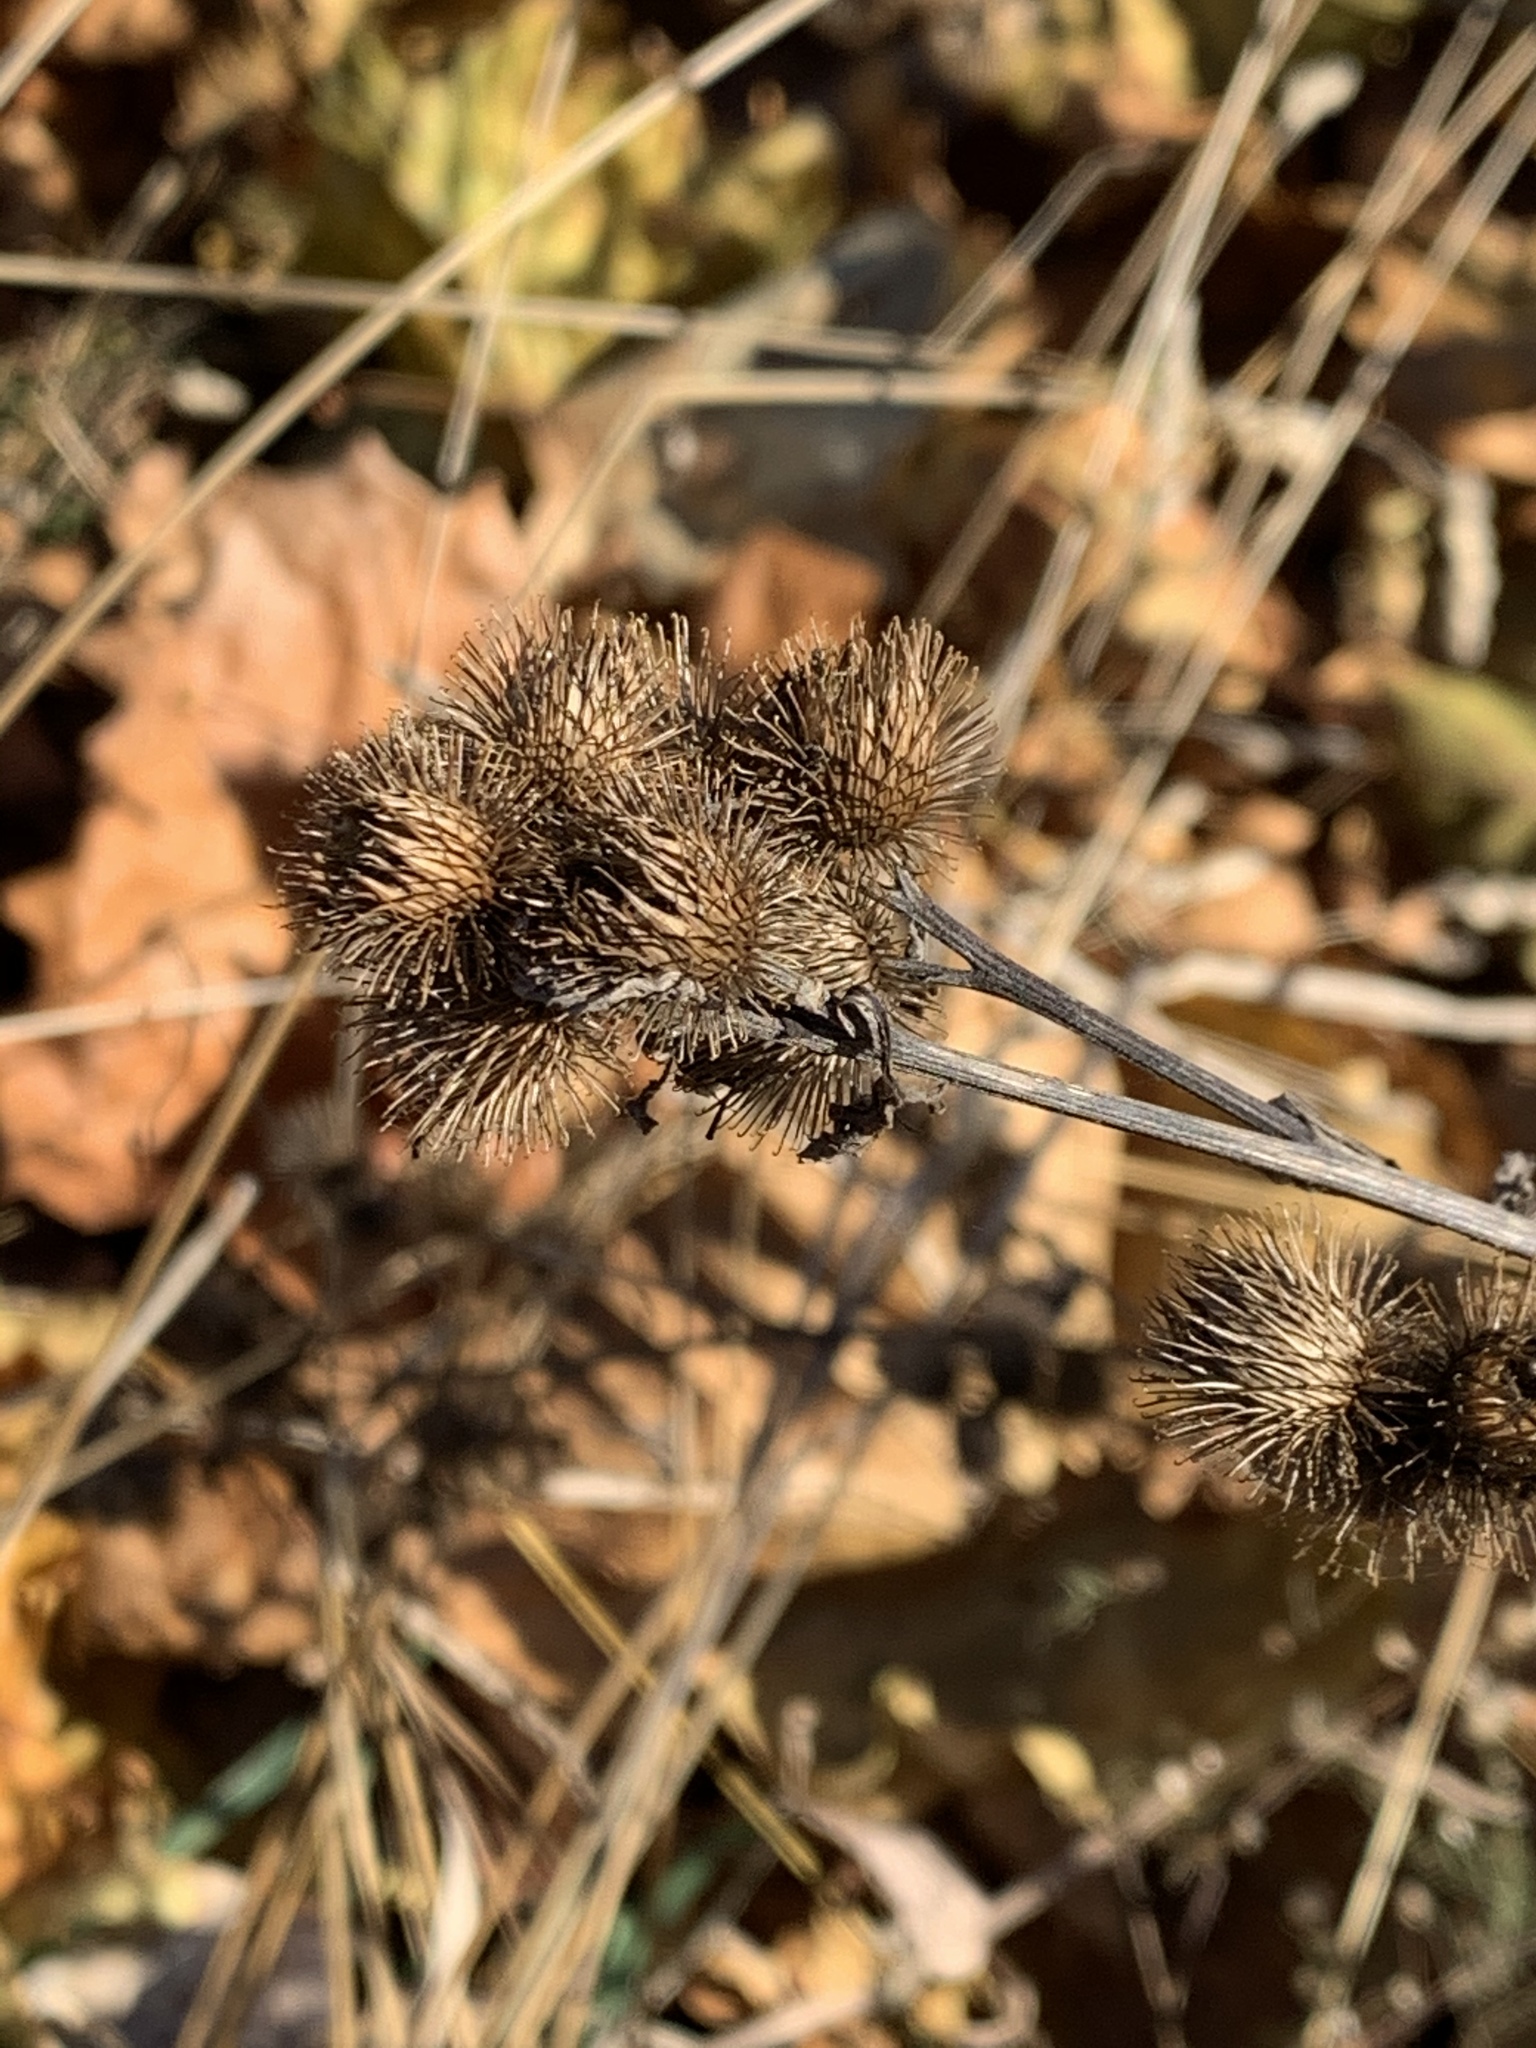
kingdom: Plantae
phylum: Tracheophyta
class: Magnoliopsida
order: Asterales
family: Asteraceae
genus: Arctium
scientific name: Arctium minus
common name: Lesser burdock
